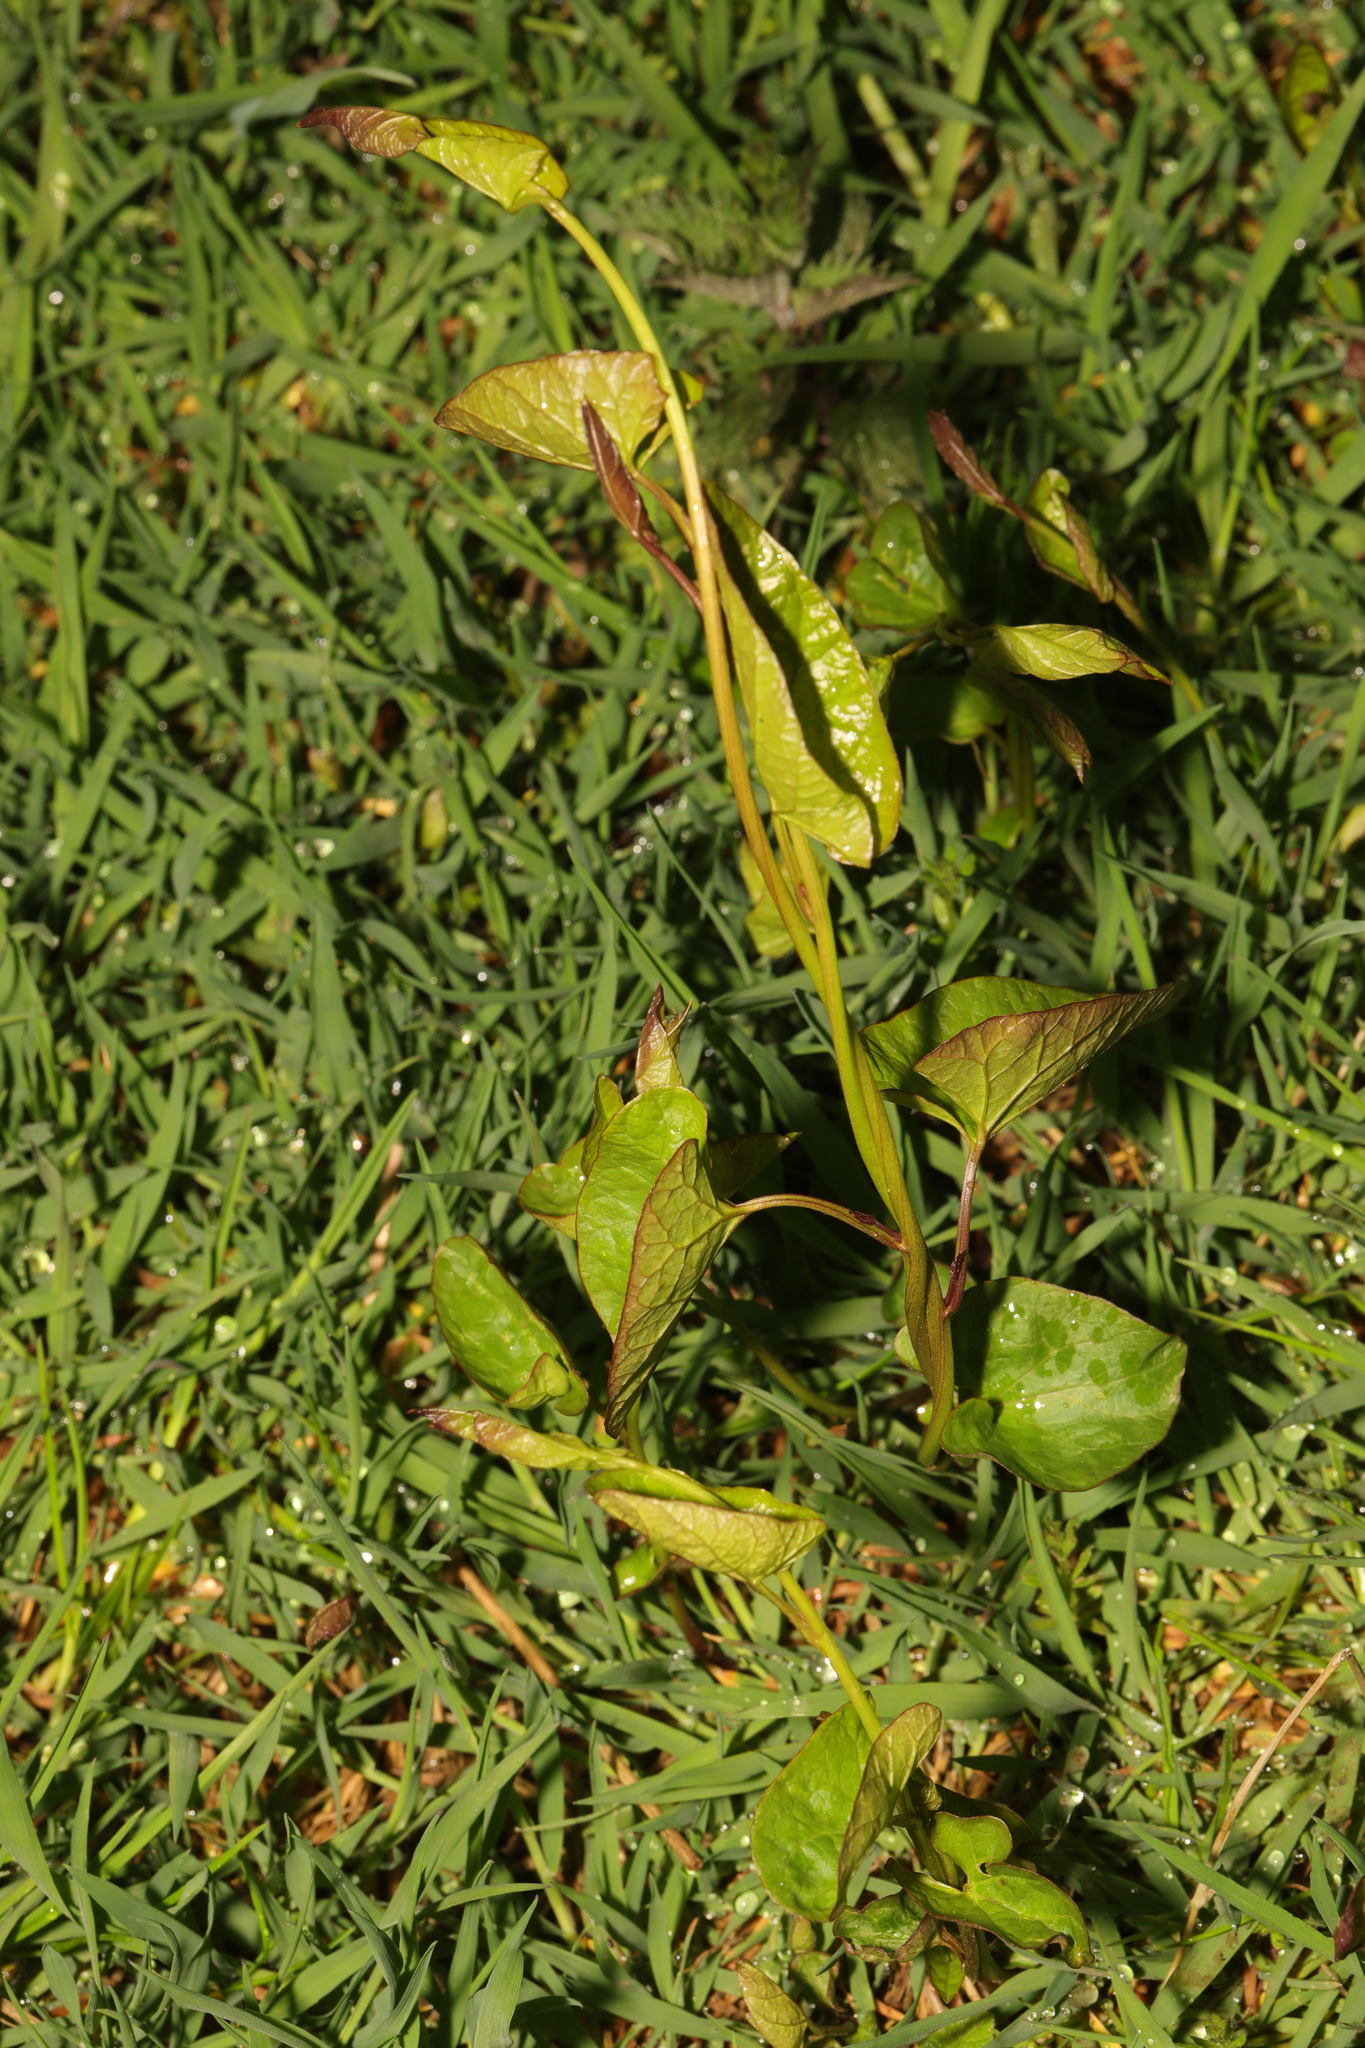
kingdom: Plantae
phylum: Tracheophyta
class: Magnoliopsida
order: Solanales
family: Convolvulaceae
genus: Calystegia
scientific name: Calystegia
